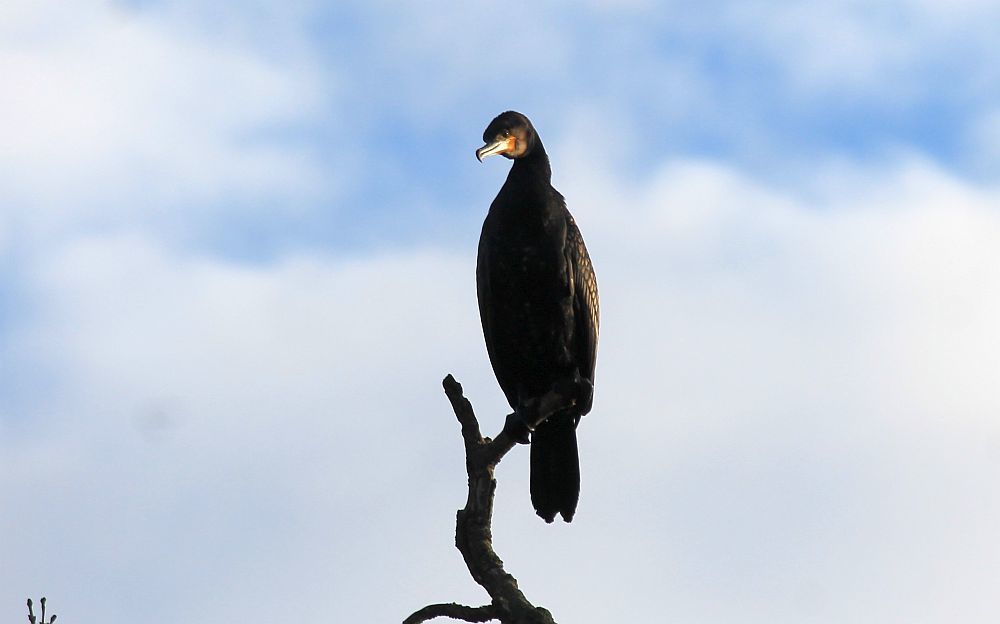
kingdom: Animalia
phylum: Chordata
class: Aves
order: Suliformes
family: Phalacrocoracidae
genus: Phalacrocorax
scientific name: Phalacrocorax carbo
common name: Great cormorant
